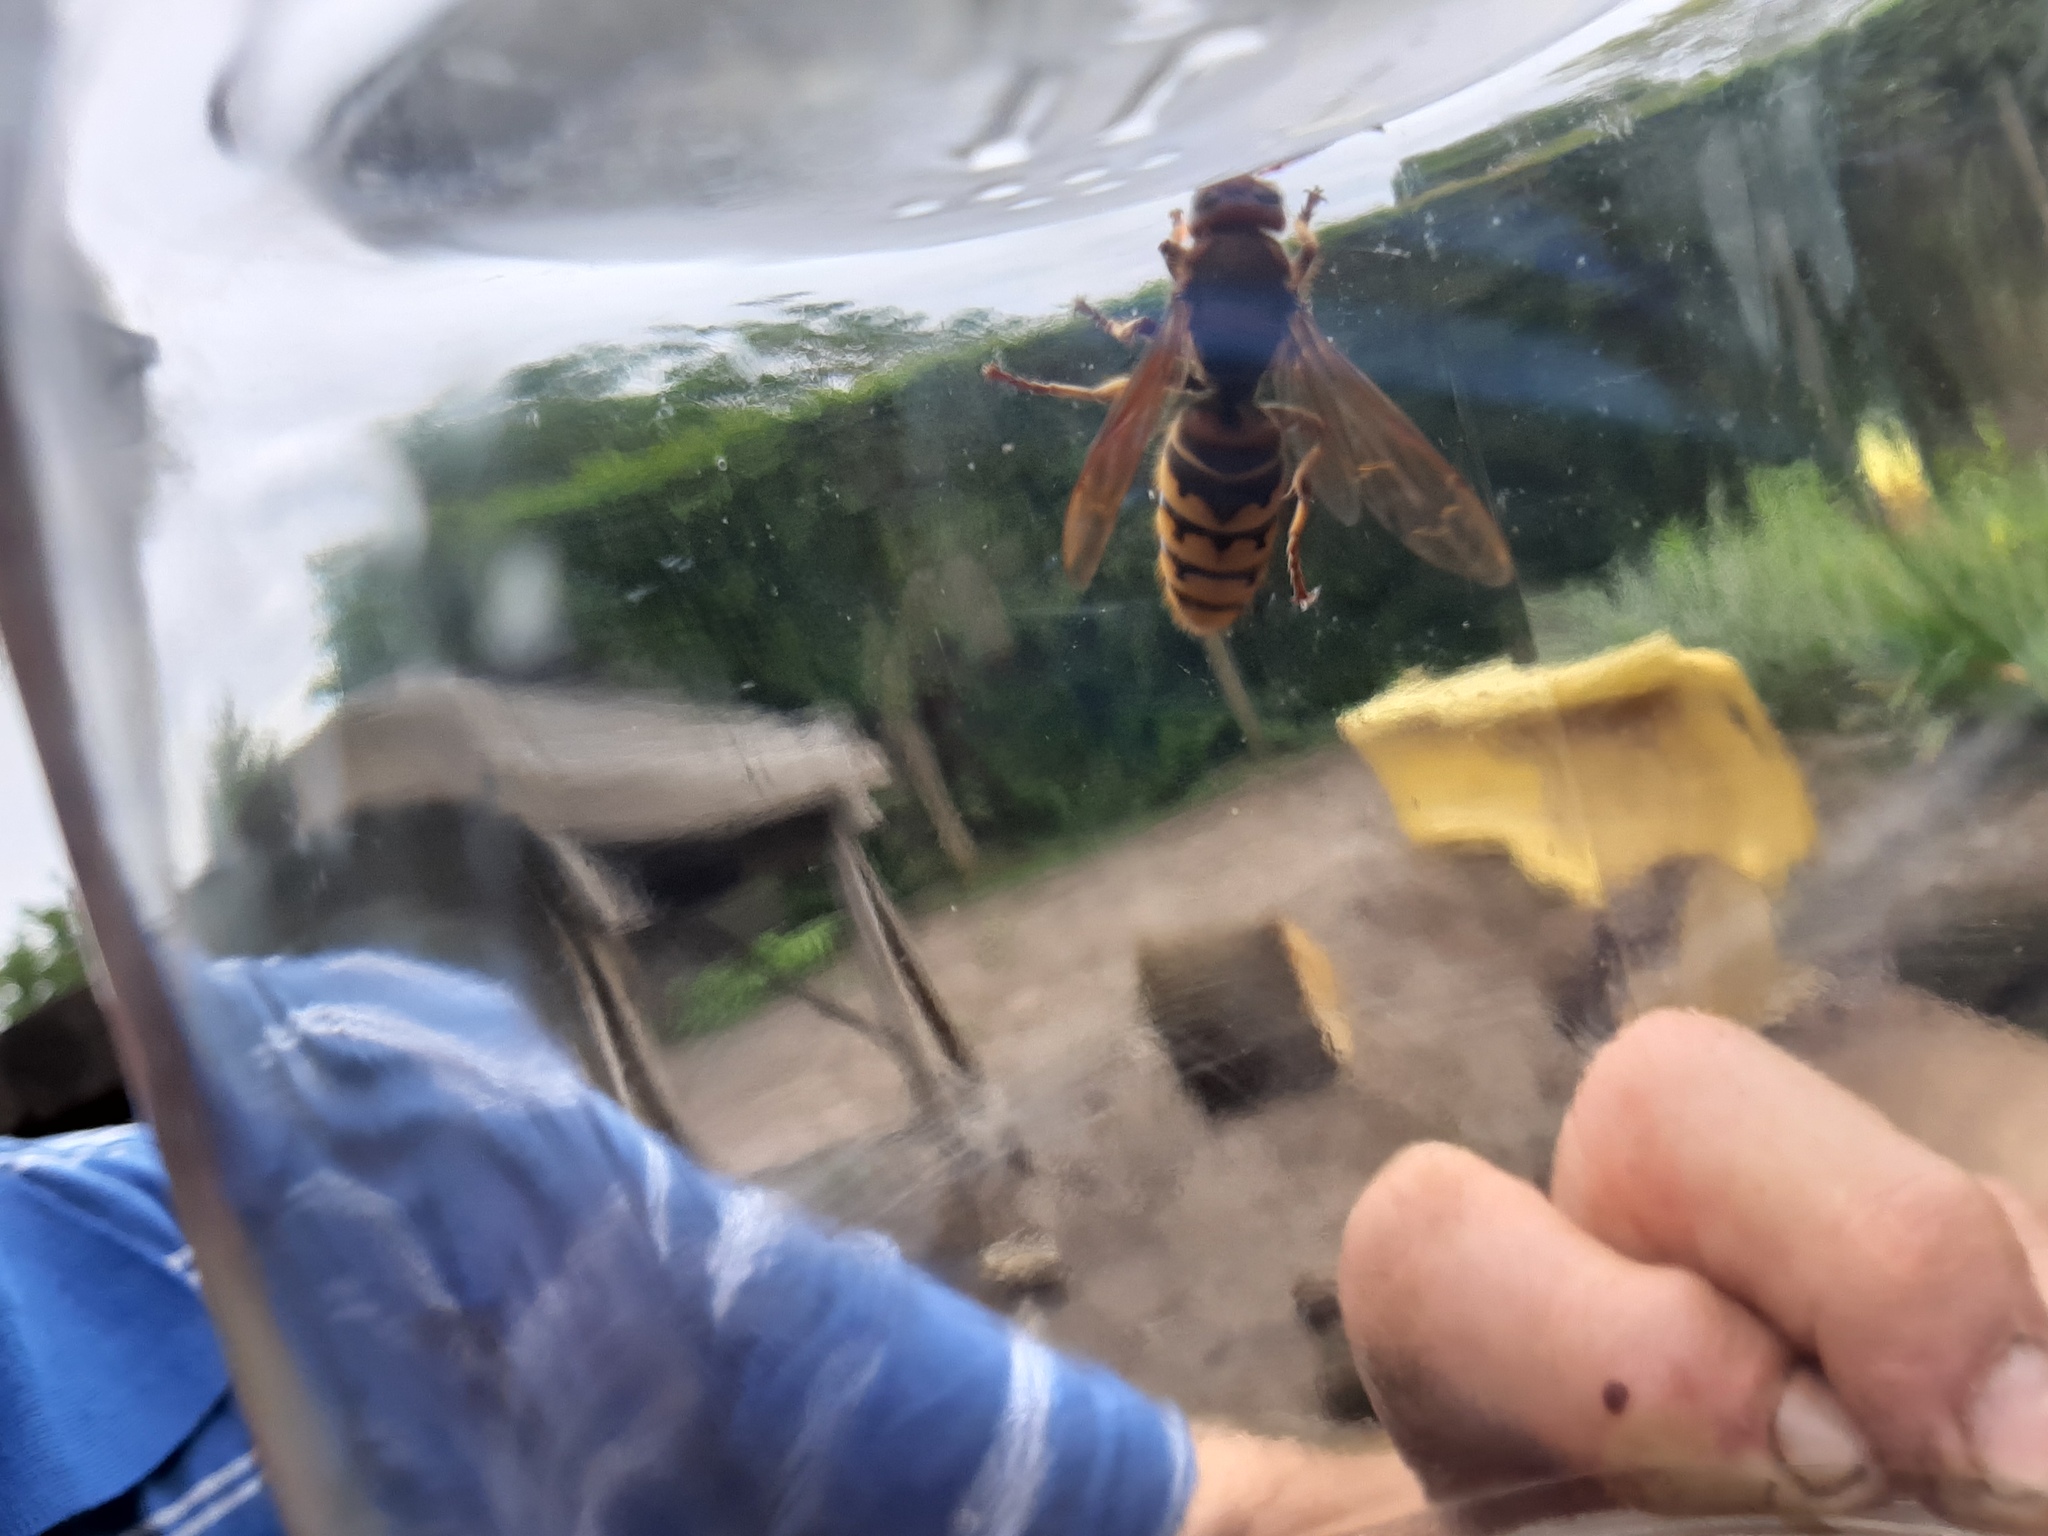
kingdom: Animalia
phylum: Arthropoda
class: Insecta
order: Hymenoptera
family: Vespidae
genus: Vespa
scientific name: Vespa crabro
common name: Hornet
